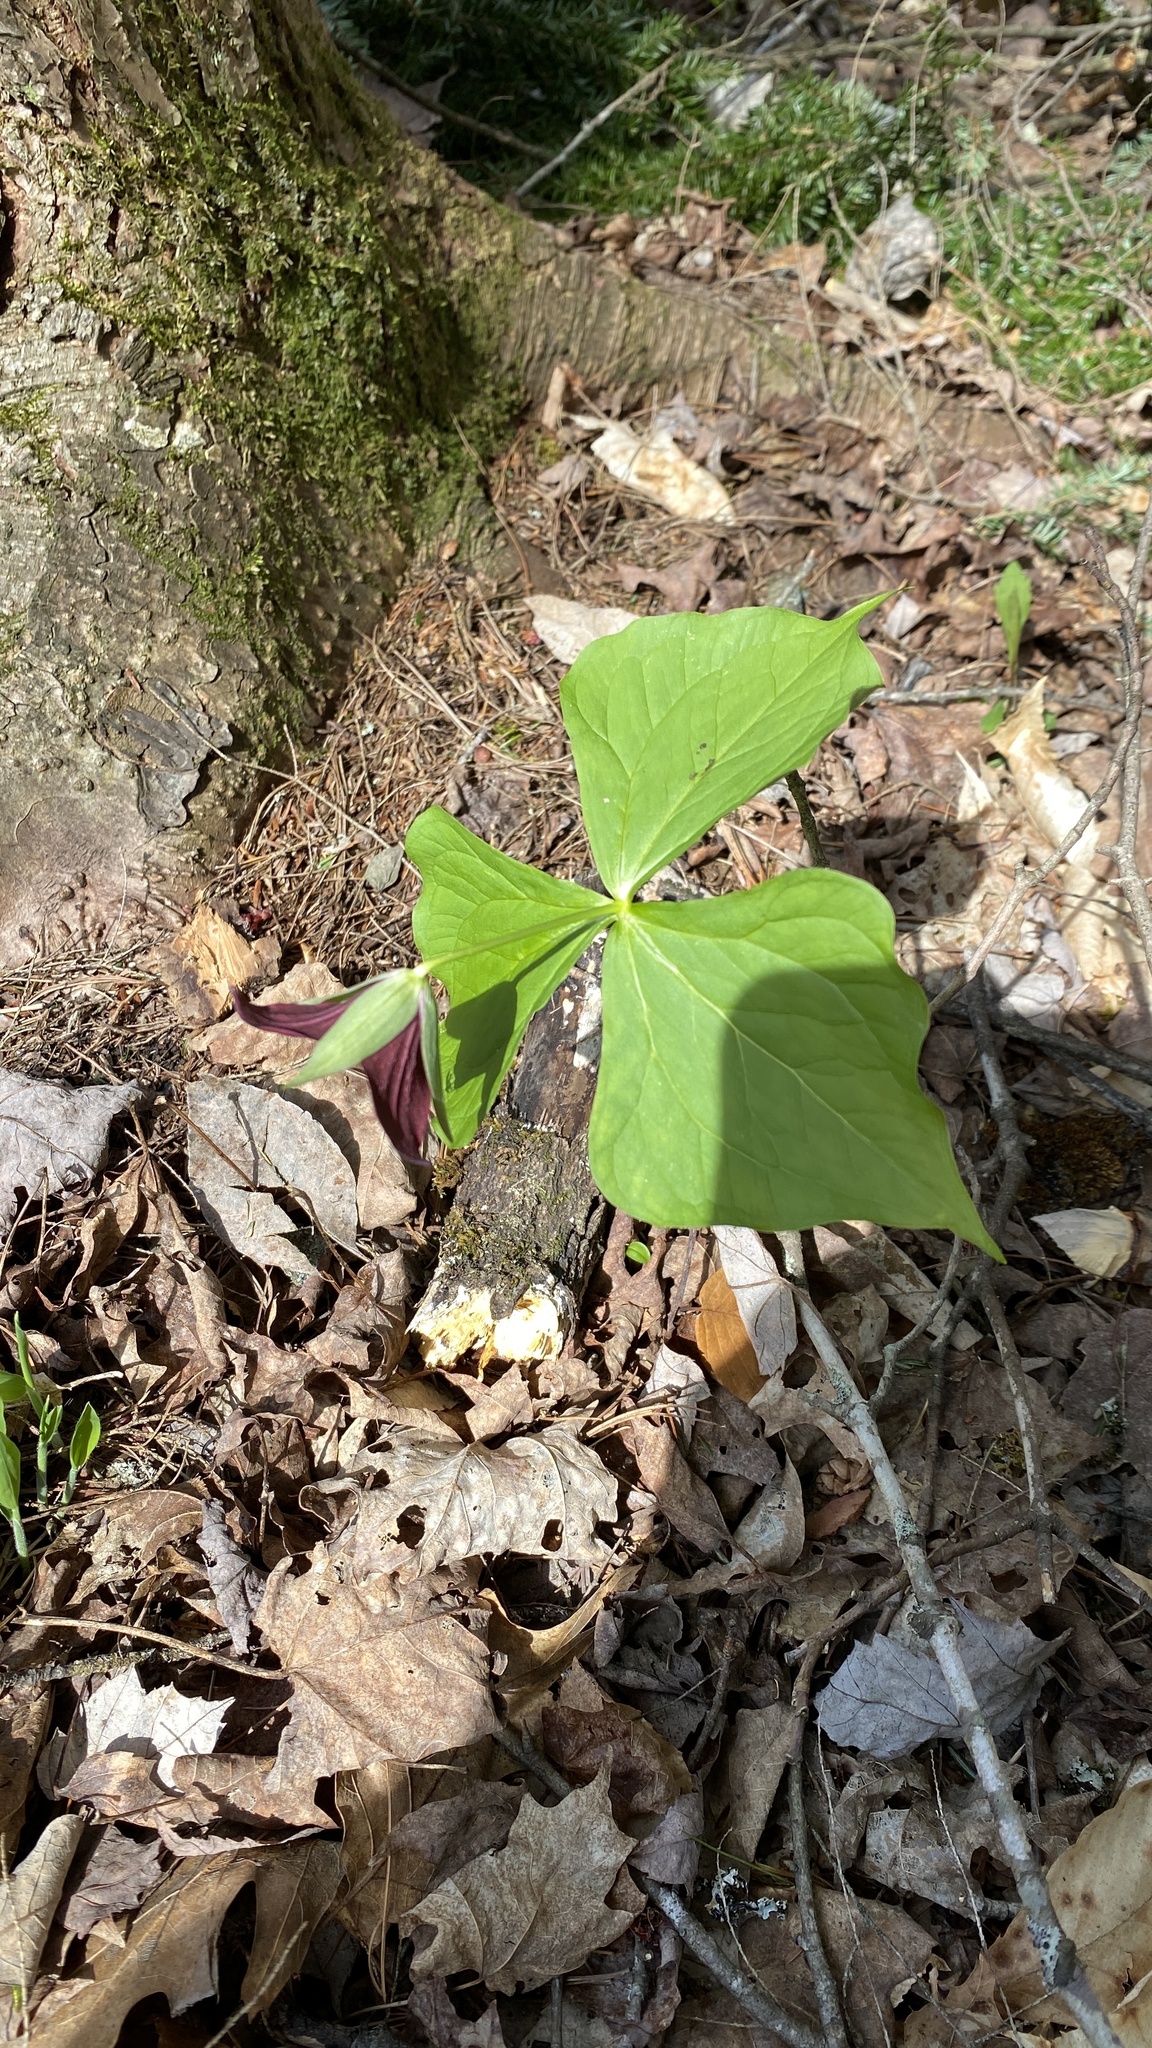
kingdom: Plantae
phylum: Tracheophyta
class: Liliopsida
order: Liliales
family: Melanthiaceae
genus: Trillium
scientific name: Trillium erectum
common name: Purple trillium
